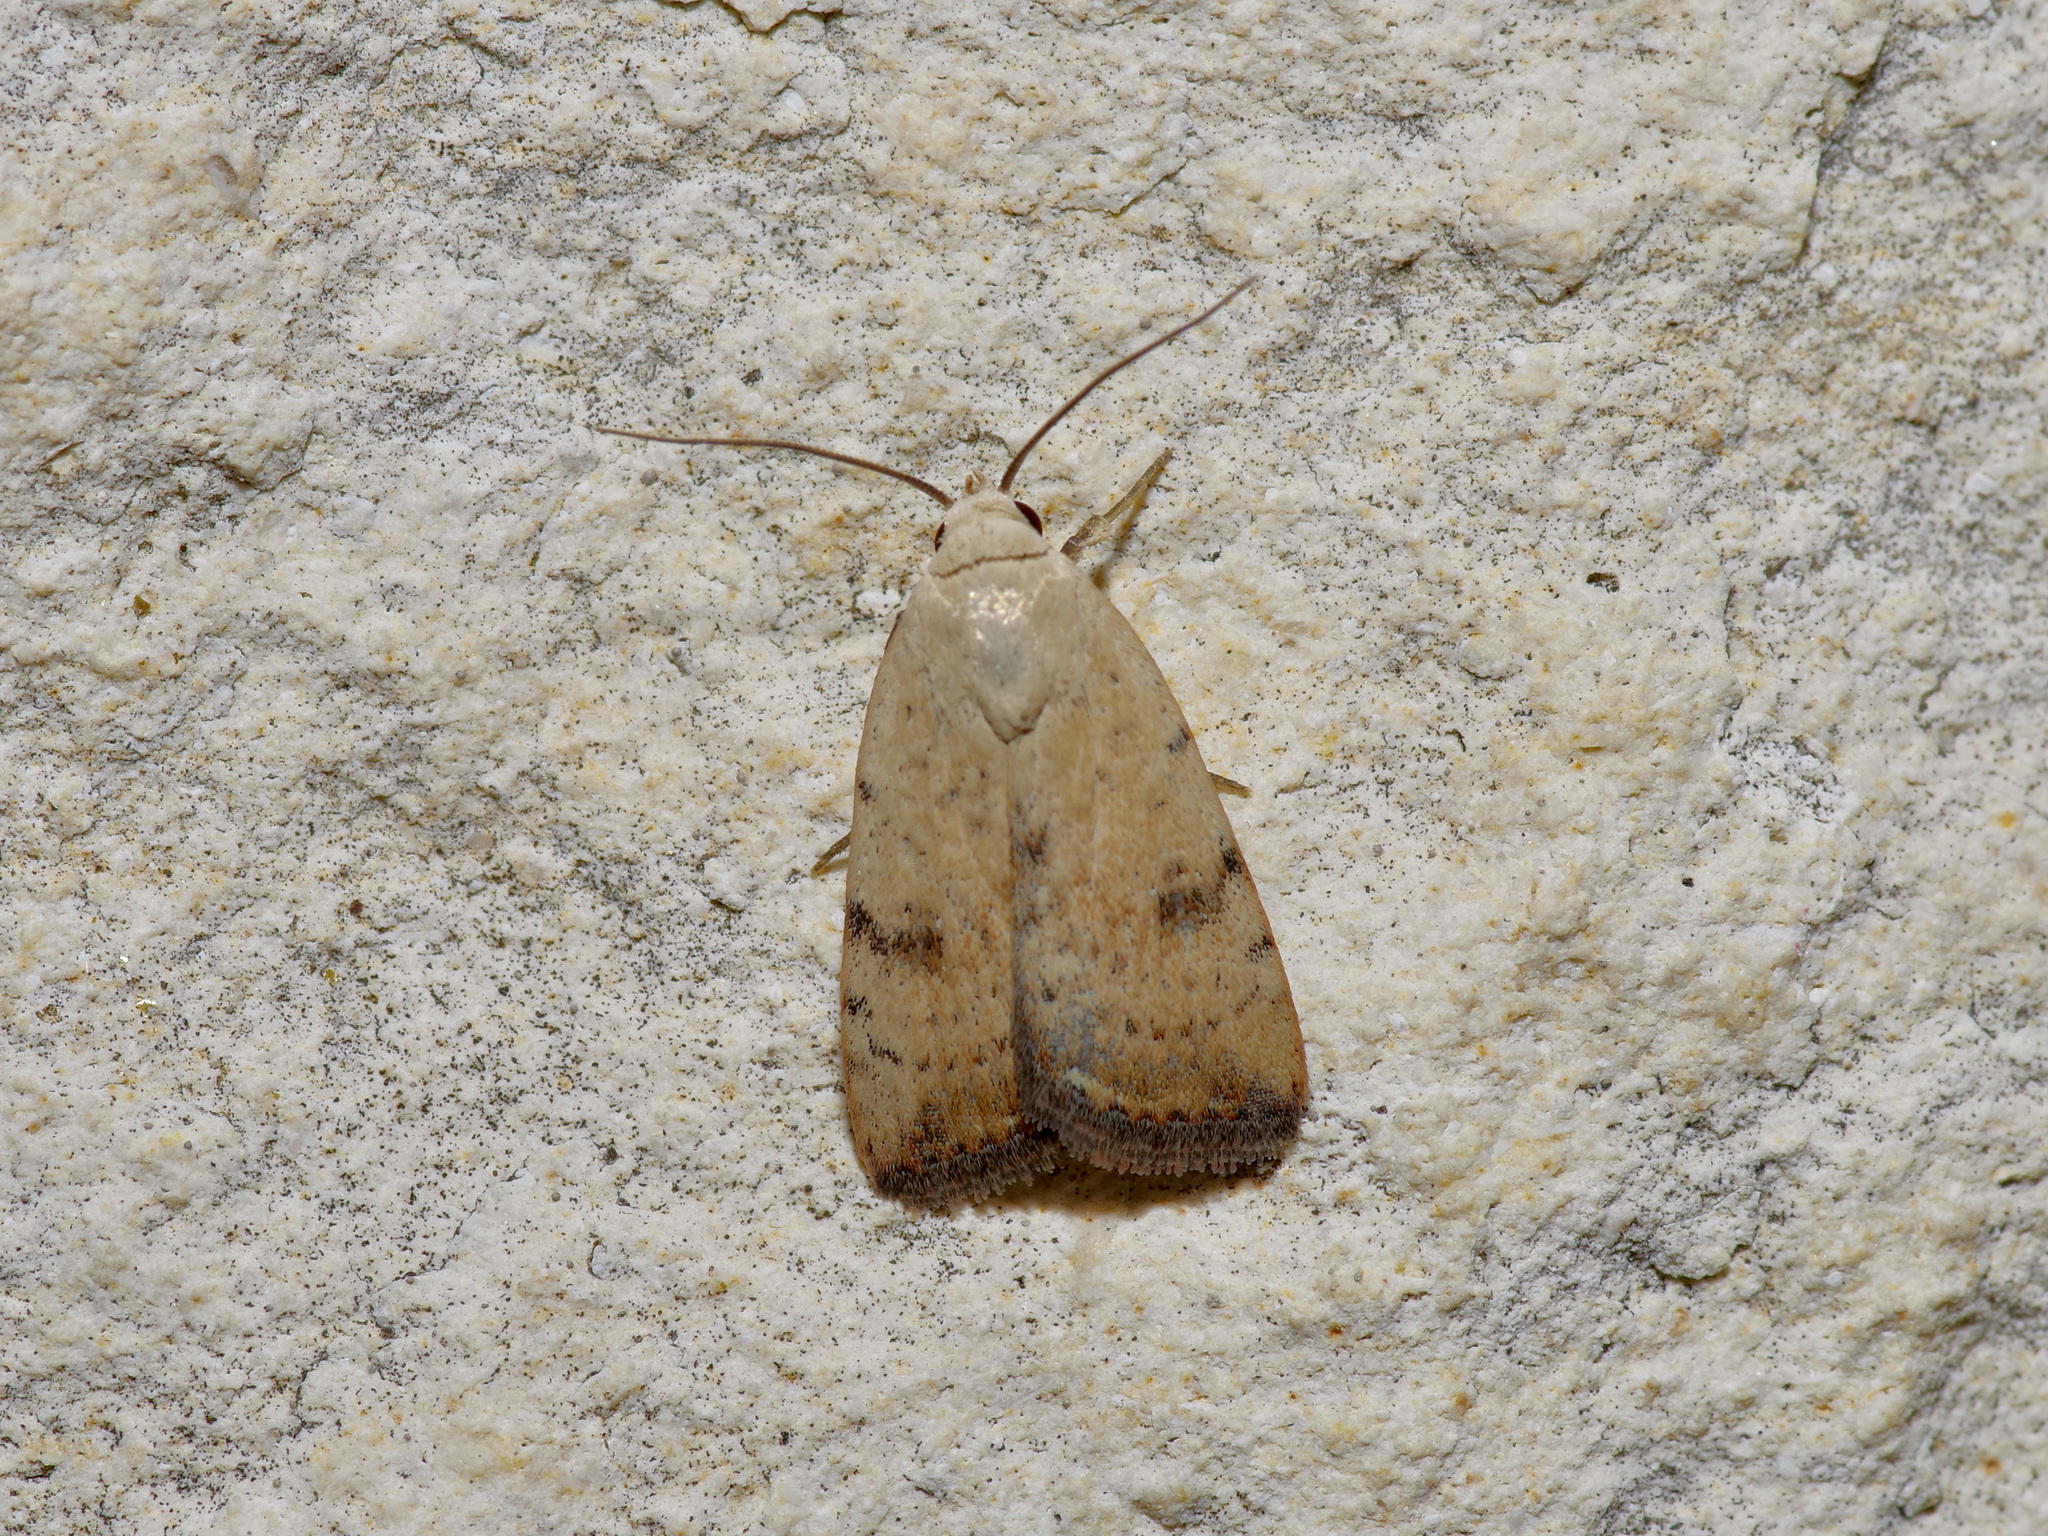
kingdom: Animalia
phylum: Arthropoda
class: Insecta
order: Lepidoptera
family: Noctuidae
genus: Micrathetis
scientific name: Micrathetis triplex
